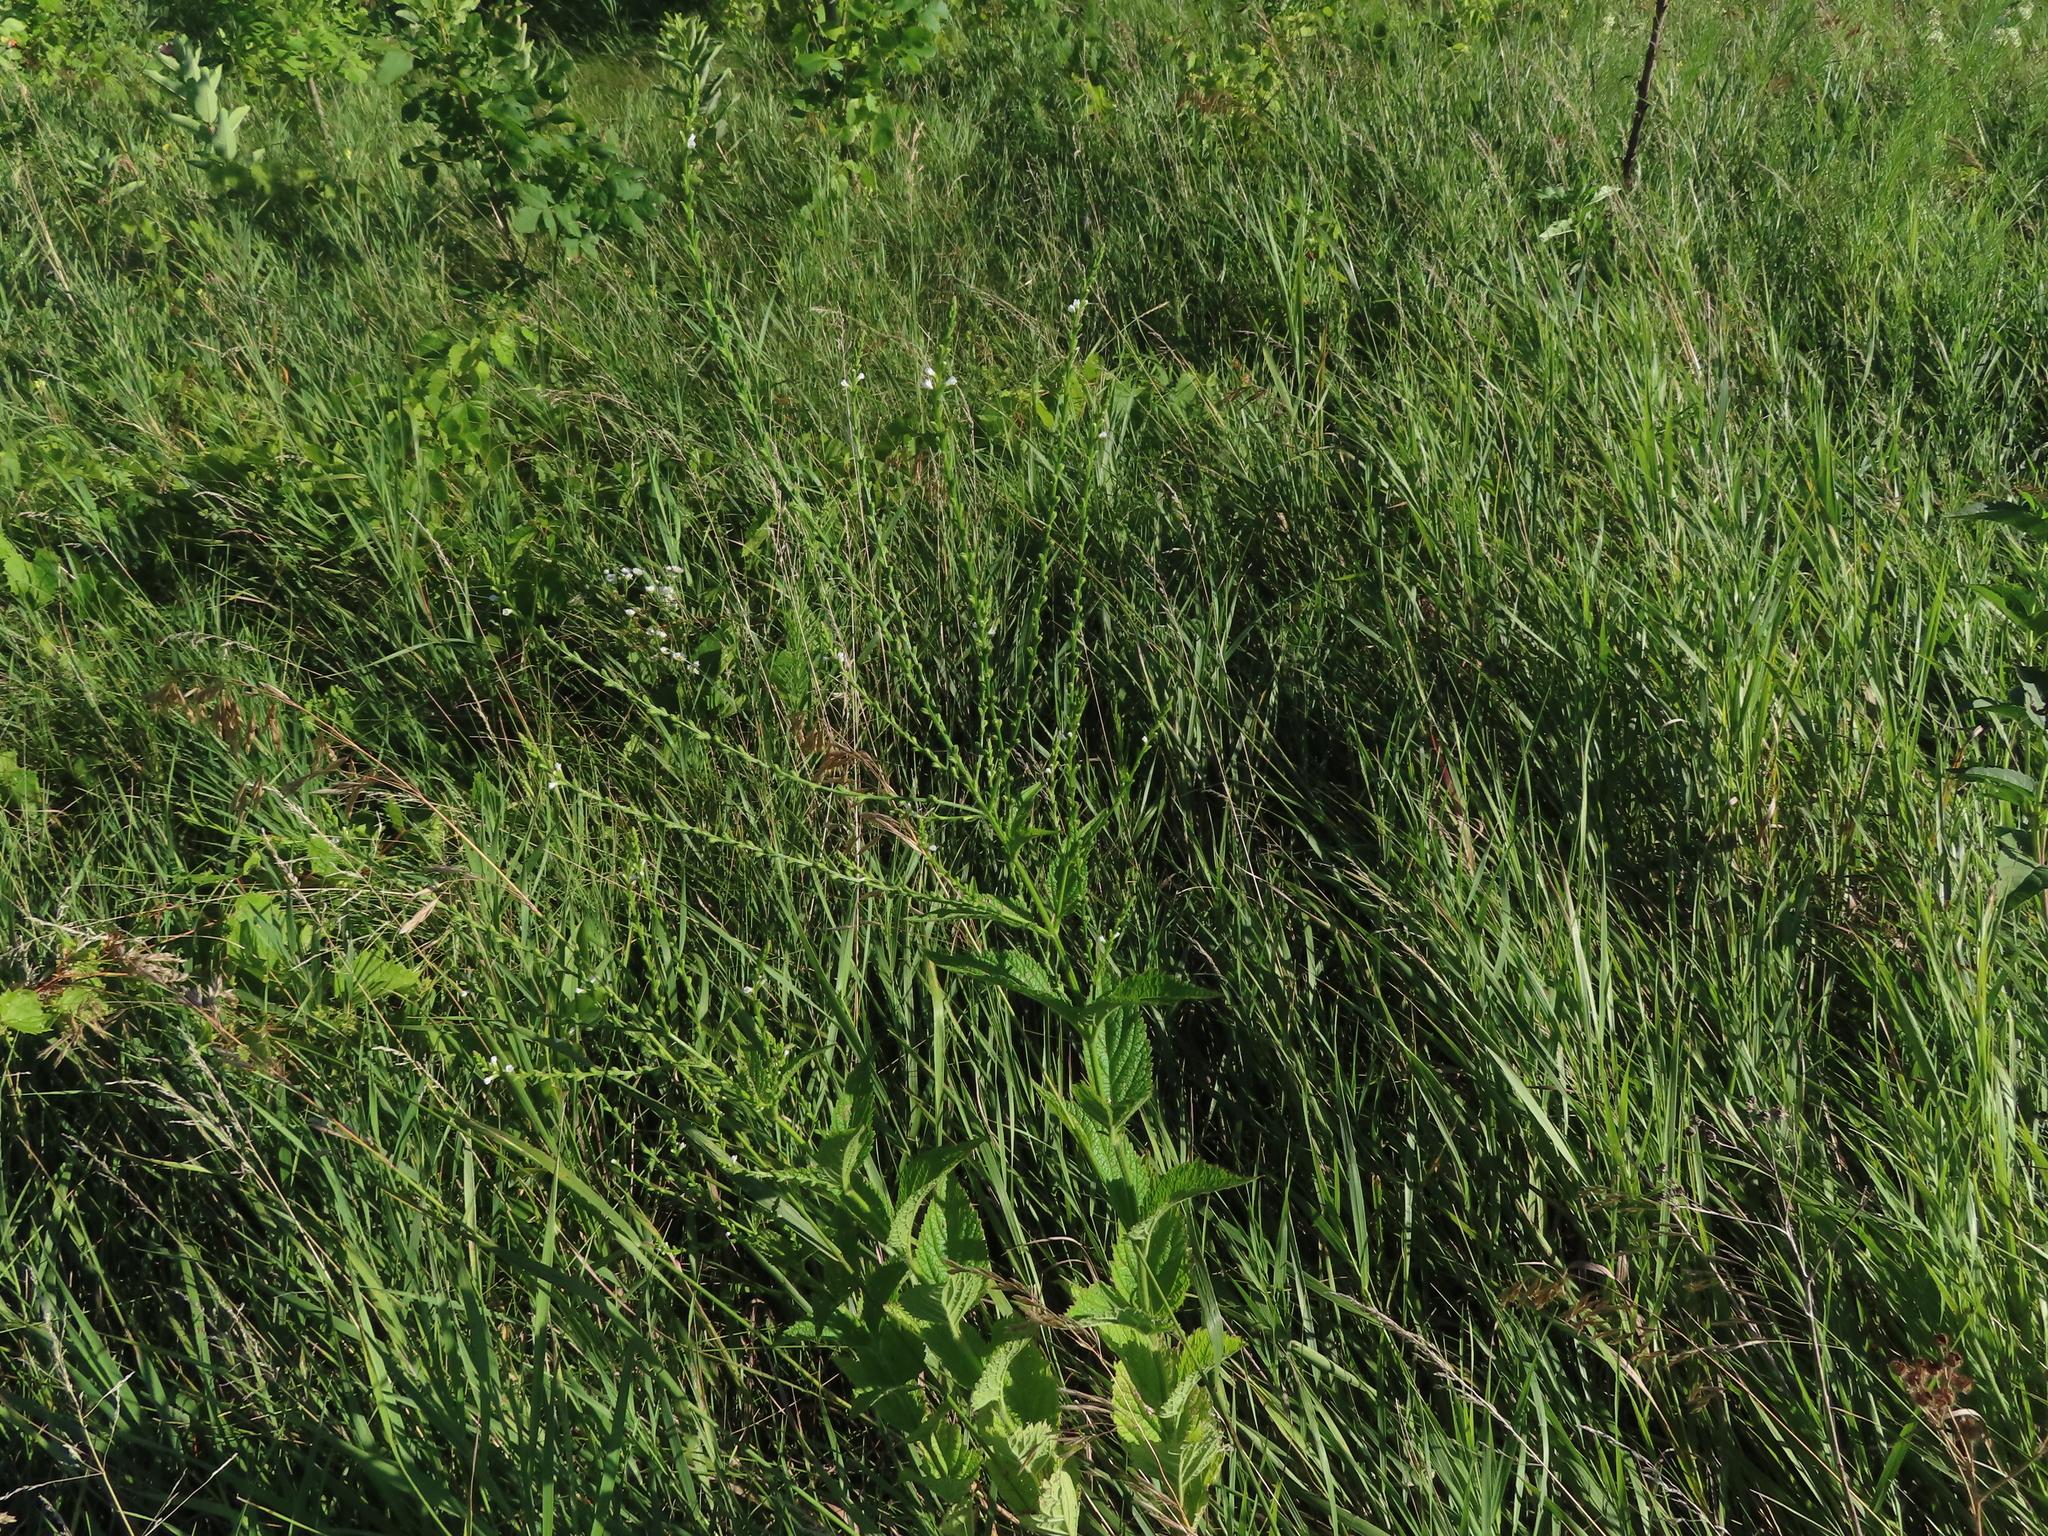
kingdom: Plantae
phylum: Tracheophyta
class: Magnoliopsida
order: Lamiales
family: Verbenaceae
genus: Verbena
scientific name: Verbena urticifolia
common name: Nettle-leaved vervain
